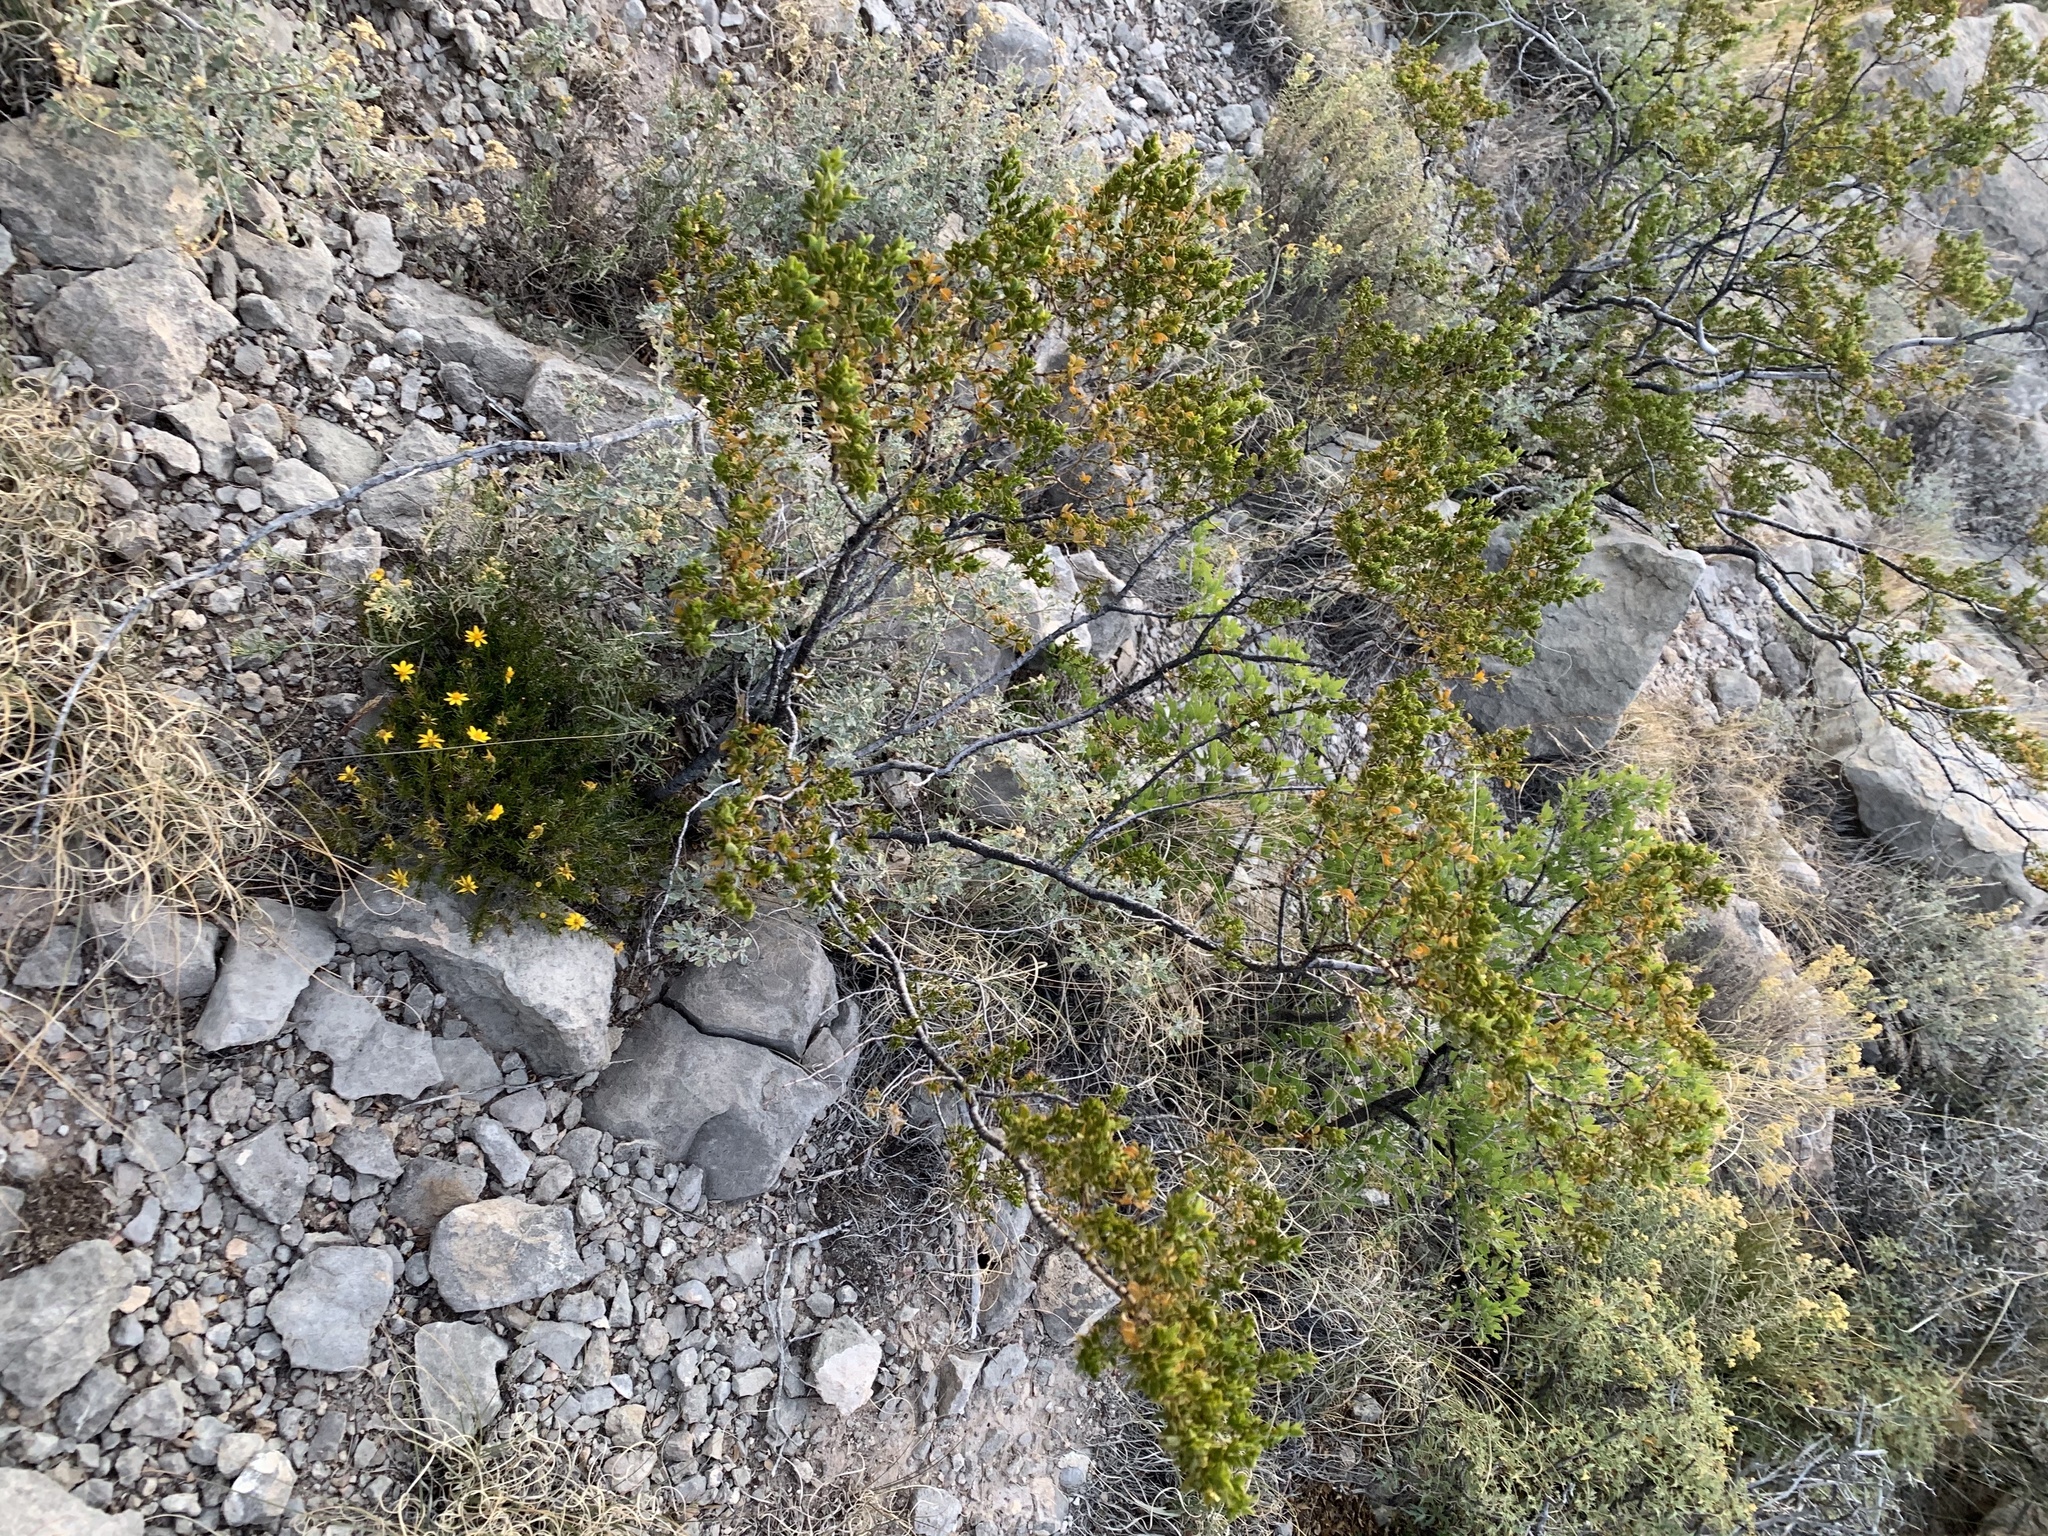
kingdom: Plantae
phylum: Tracheophyta
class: Magnoliopsida
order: Zygophyllales
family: Zygophyllaceae
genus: Larrea
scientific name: Larrea tridentata
